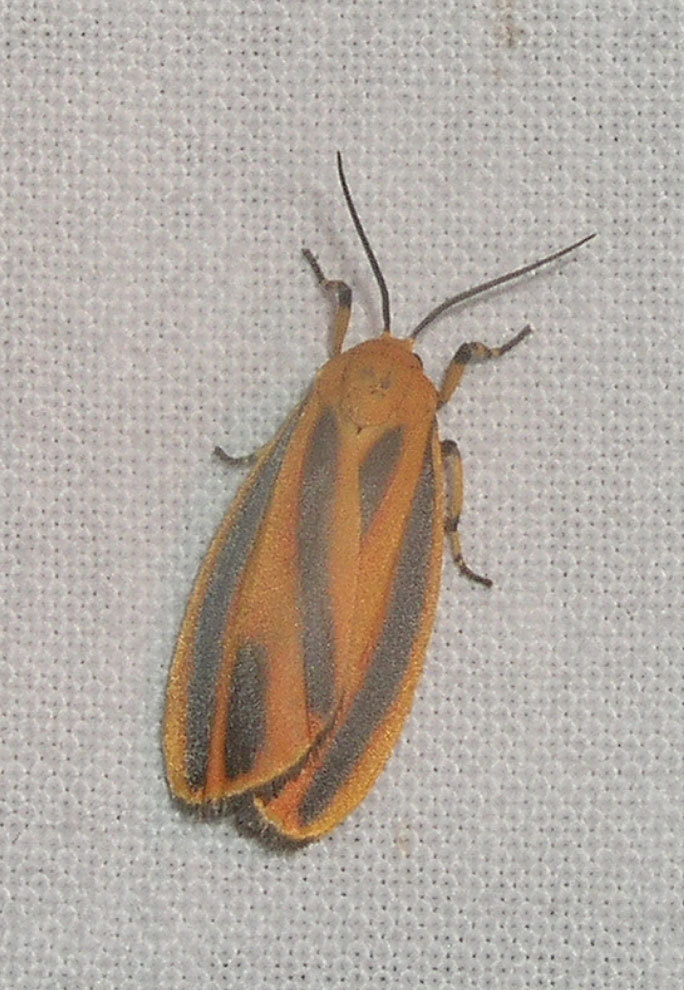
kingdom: Animalia
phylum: Arthropoda
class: Insecta
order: Lepidoptera
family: Erebidae
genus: Hypoprepia
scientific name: Hypoprepia fucosa
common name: Painted lichen moth
